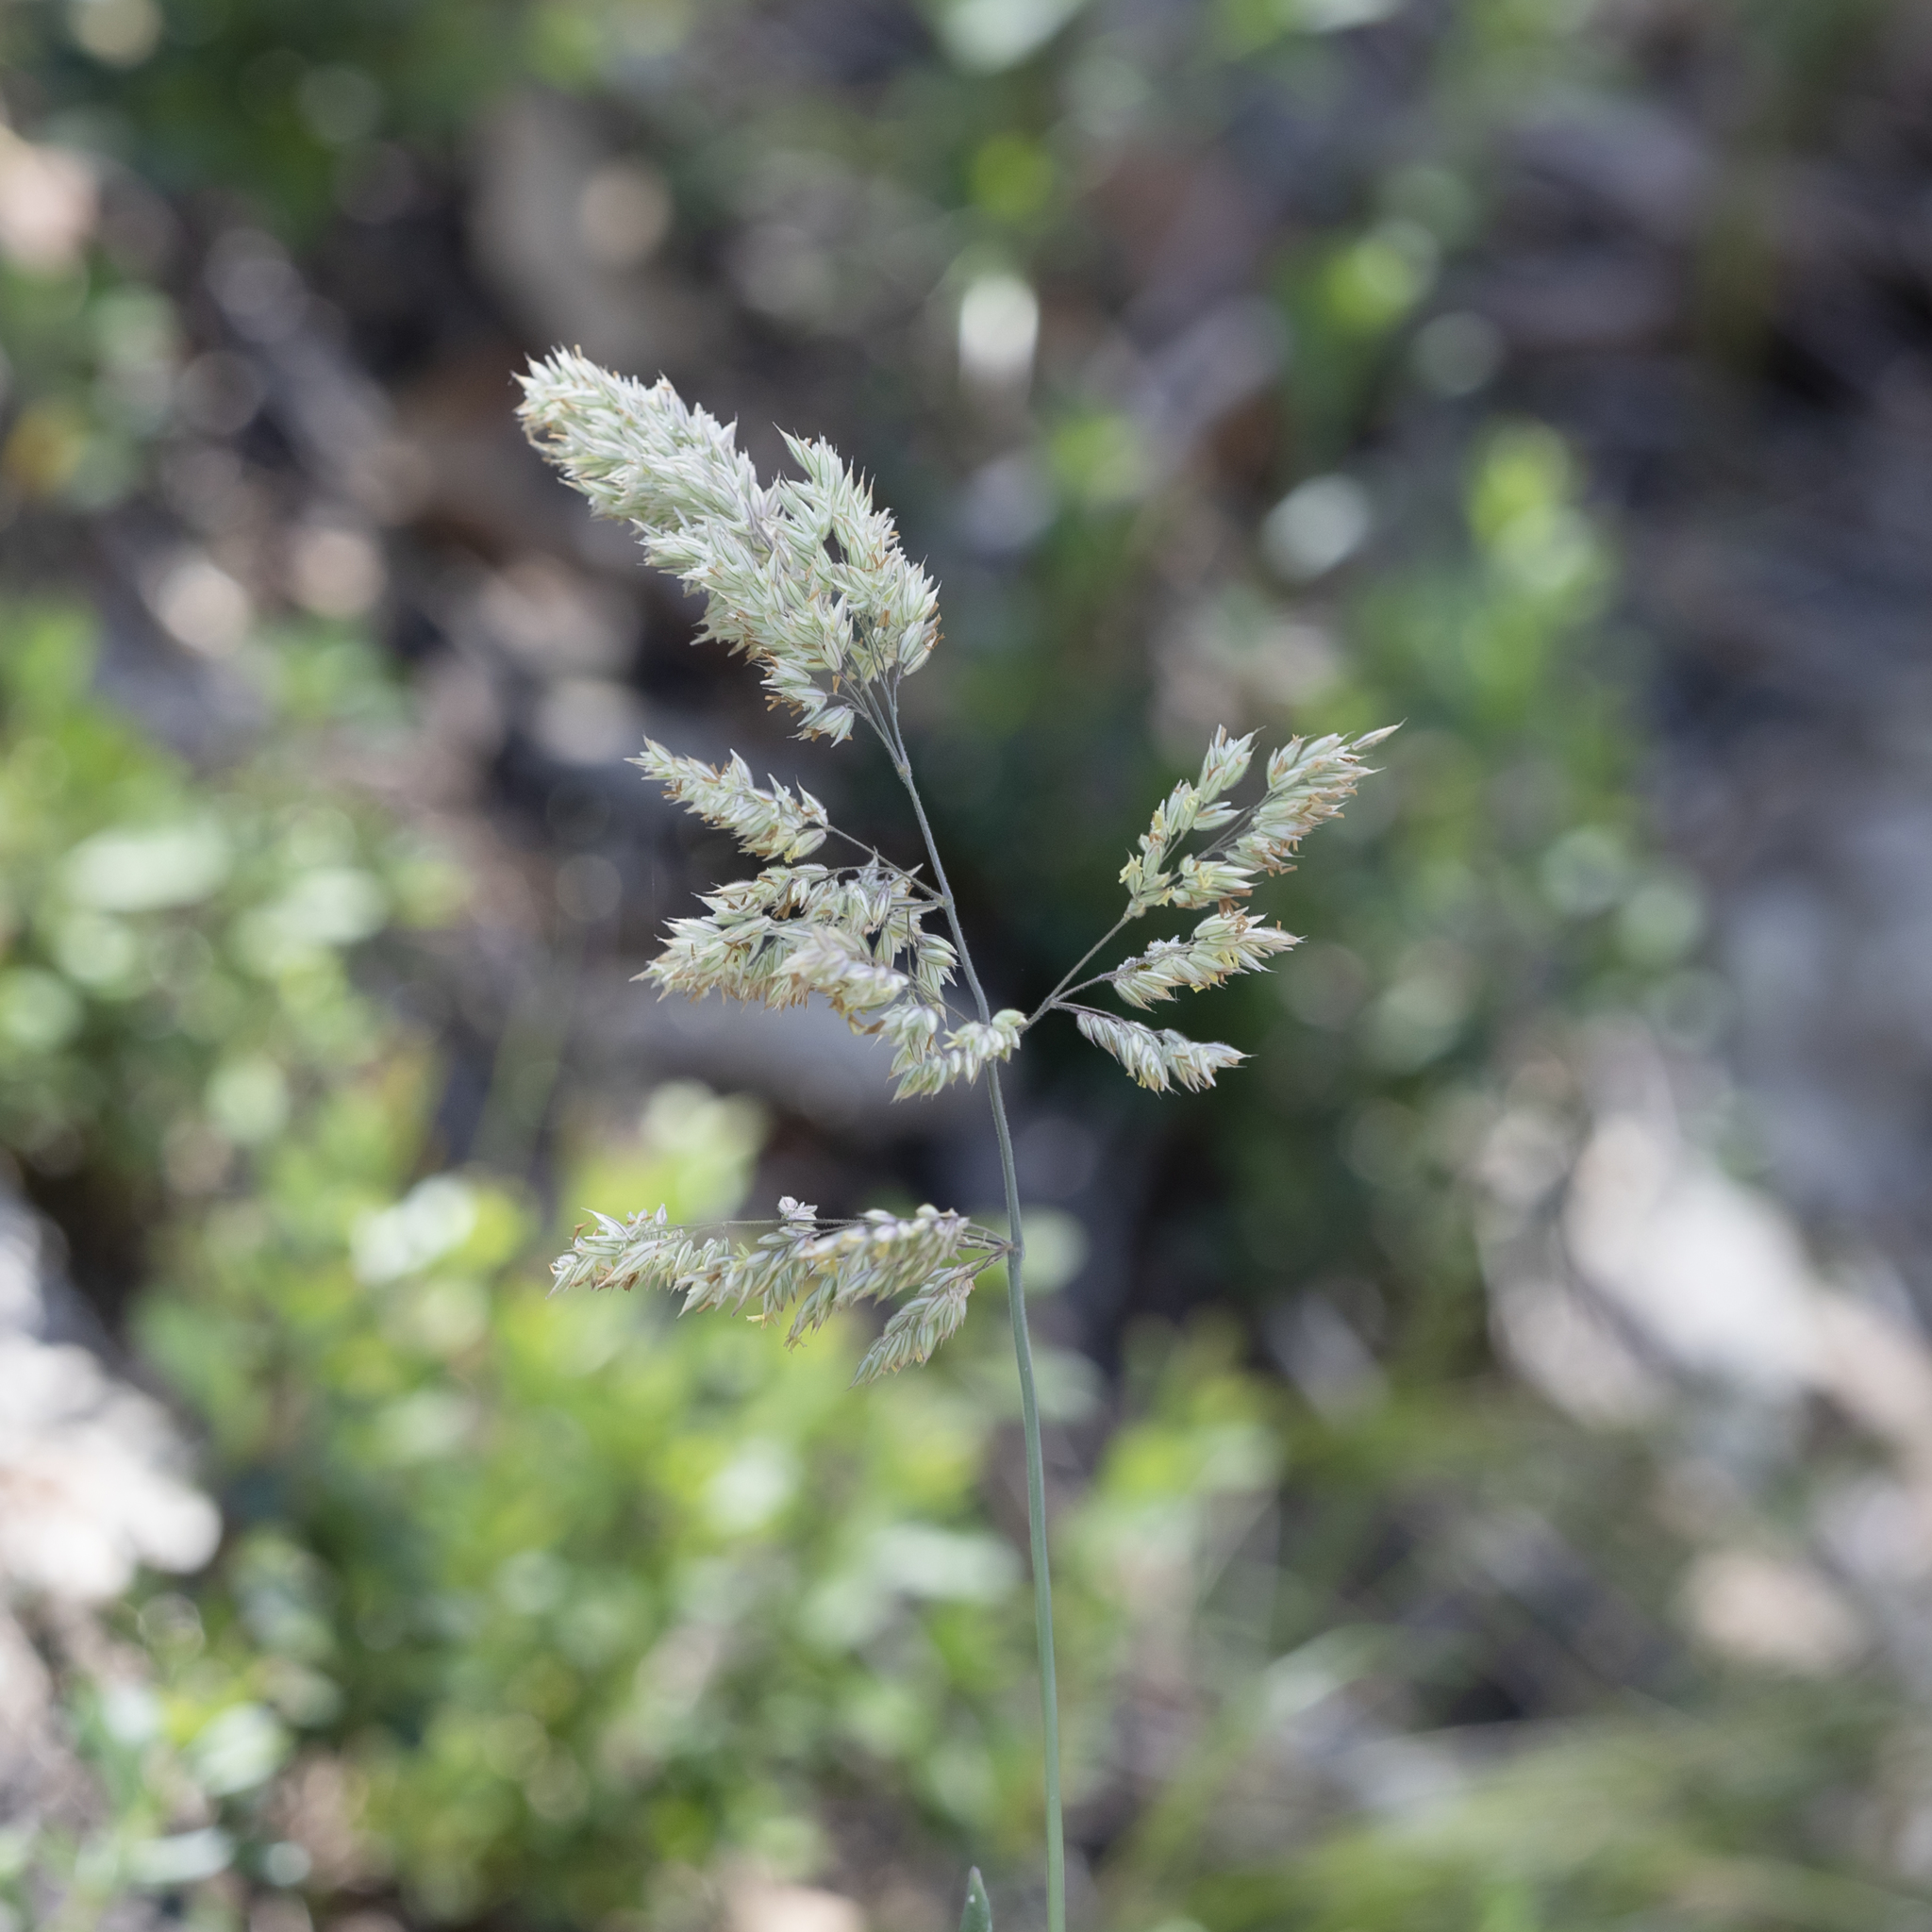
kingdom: Plantae
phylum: Tracheophyta
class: Liliopsida
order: Poales
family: Poaceae
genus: Holcus
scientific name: Holcus lanatus
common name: Yorkshire-fog
